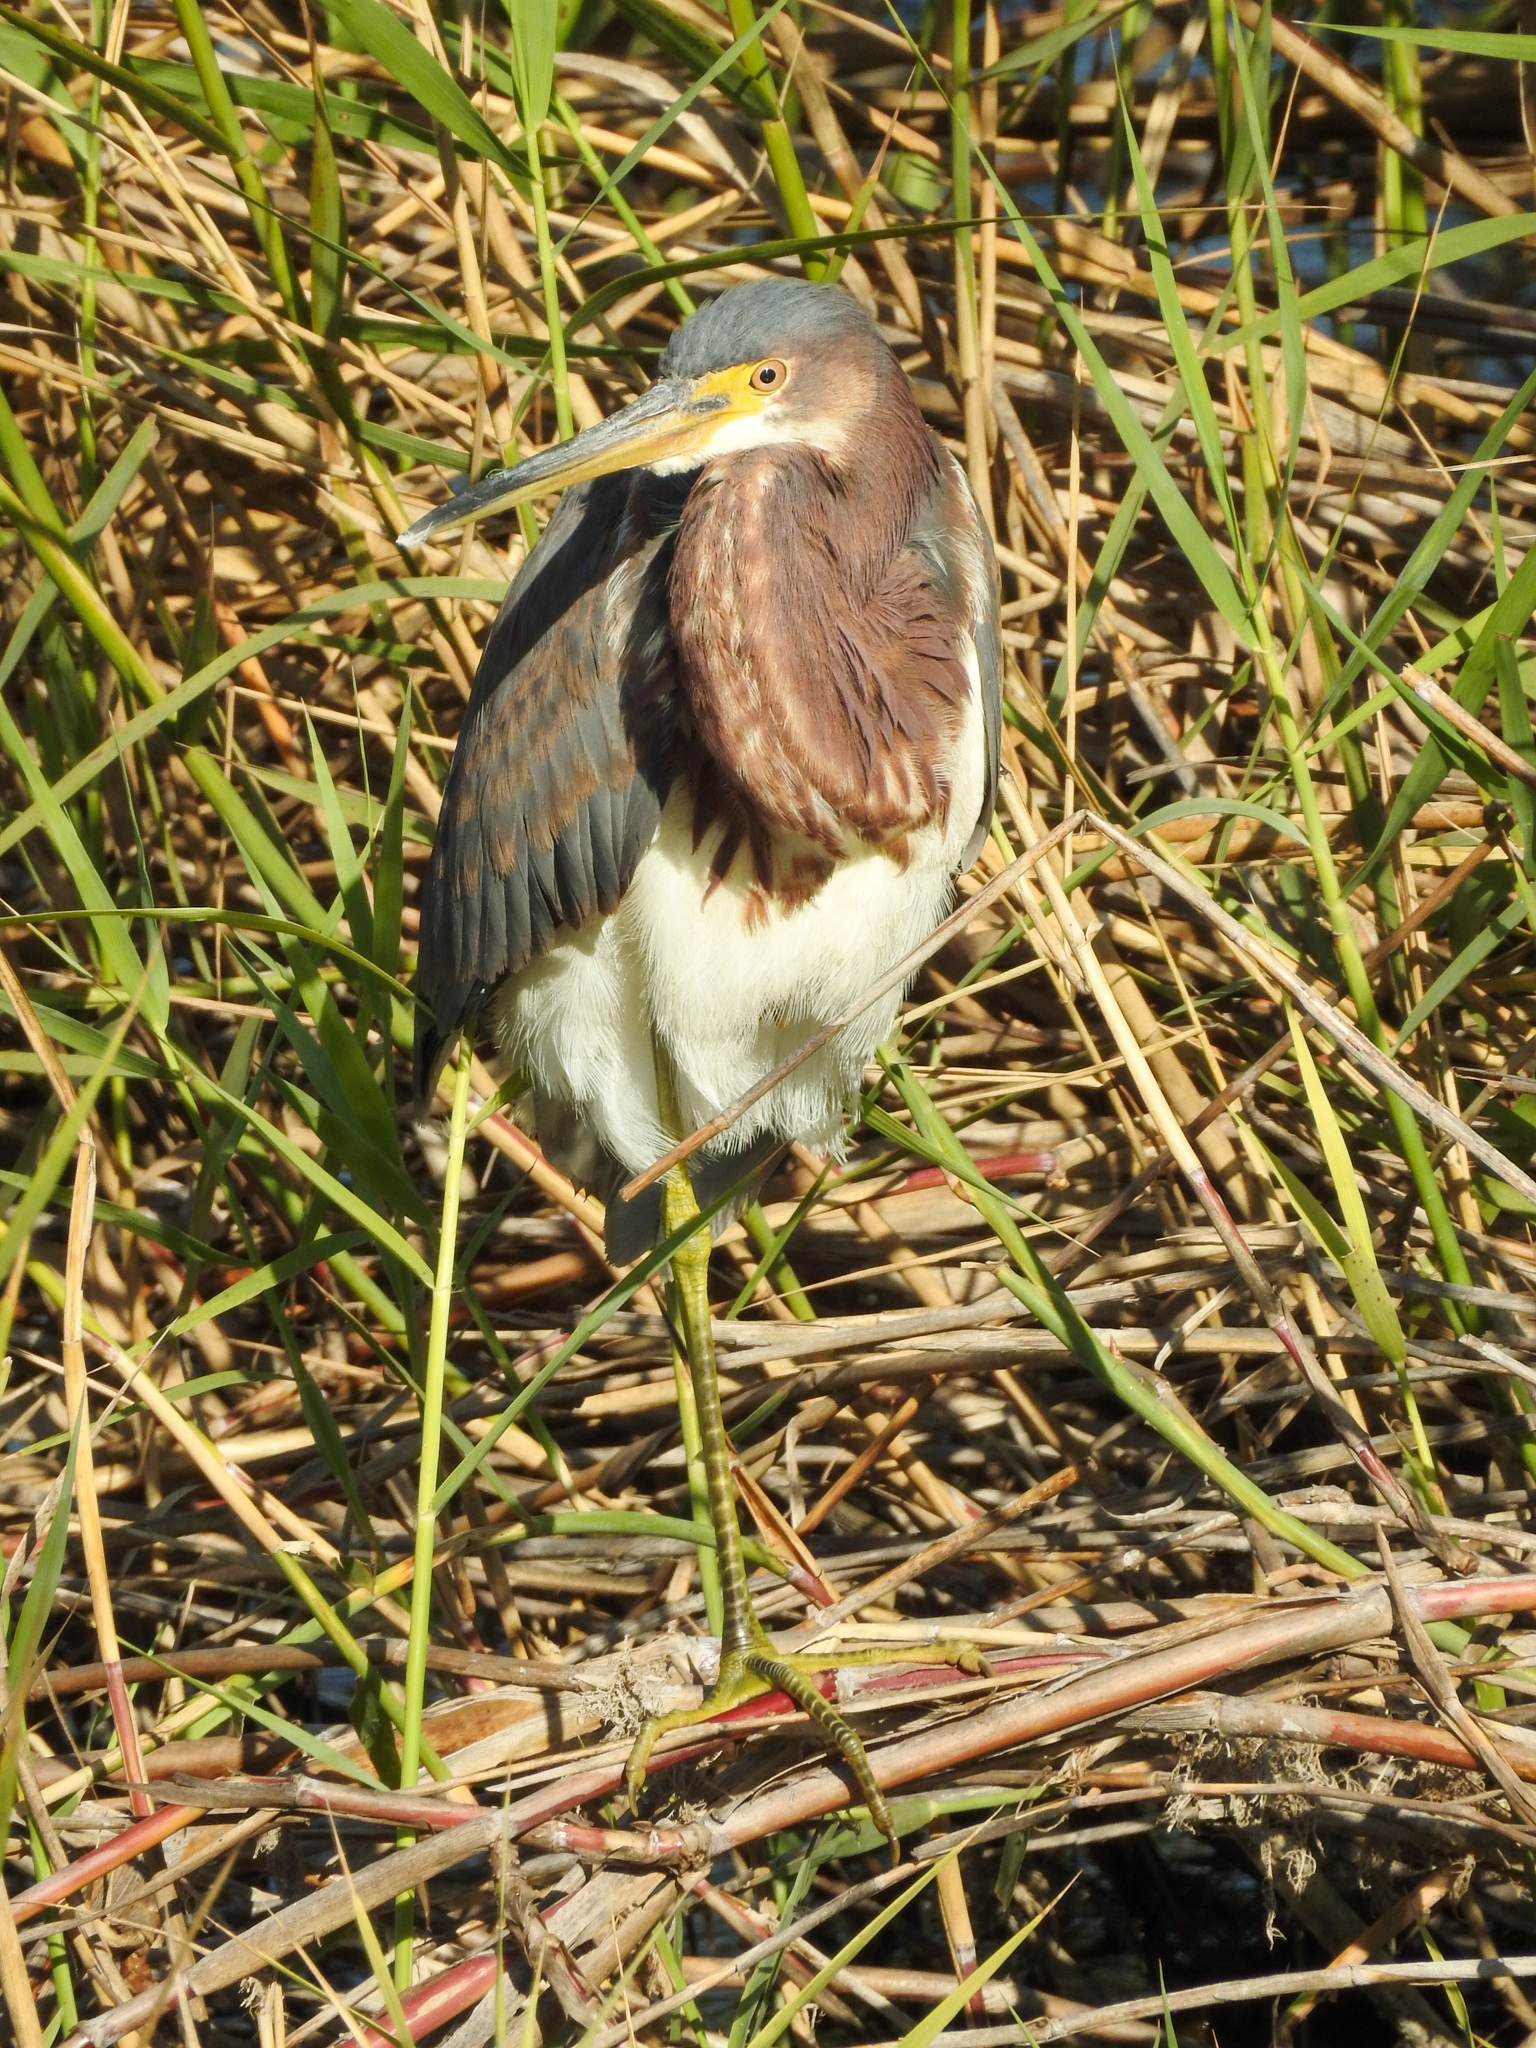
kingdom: Animalia
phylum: Chordata
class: Aves
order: Pelecaniformes
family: Ardeidae
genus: Egretta
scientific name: Egretta tricolor
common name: Tricolored heron
